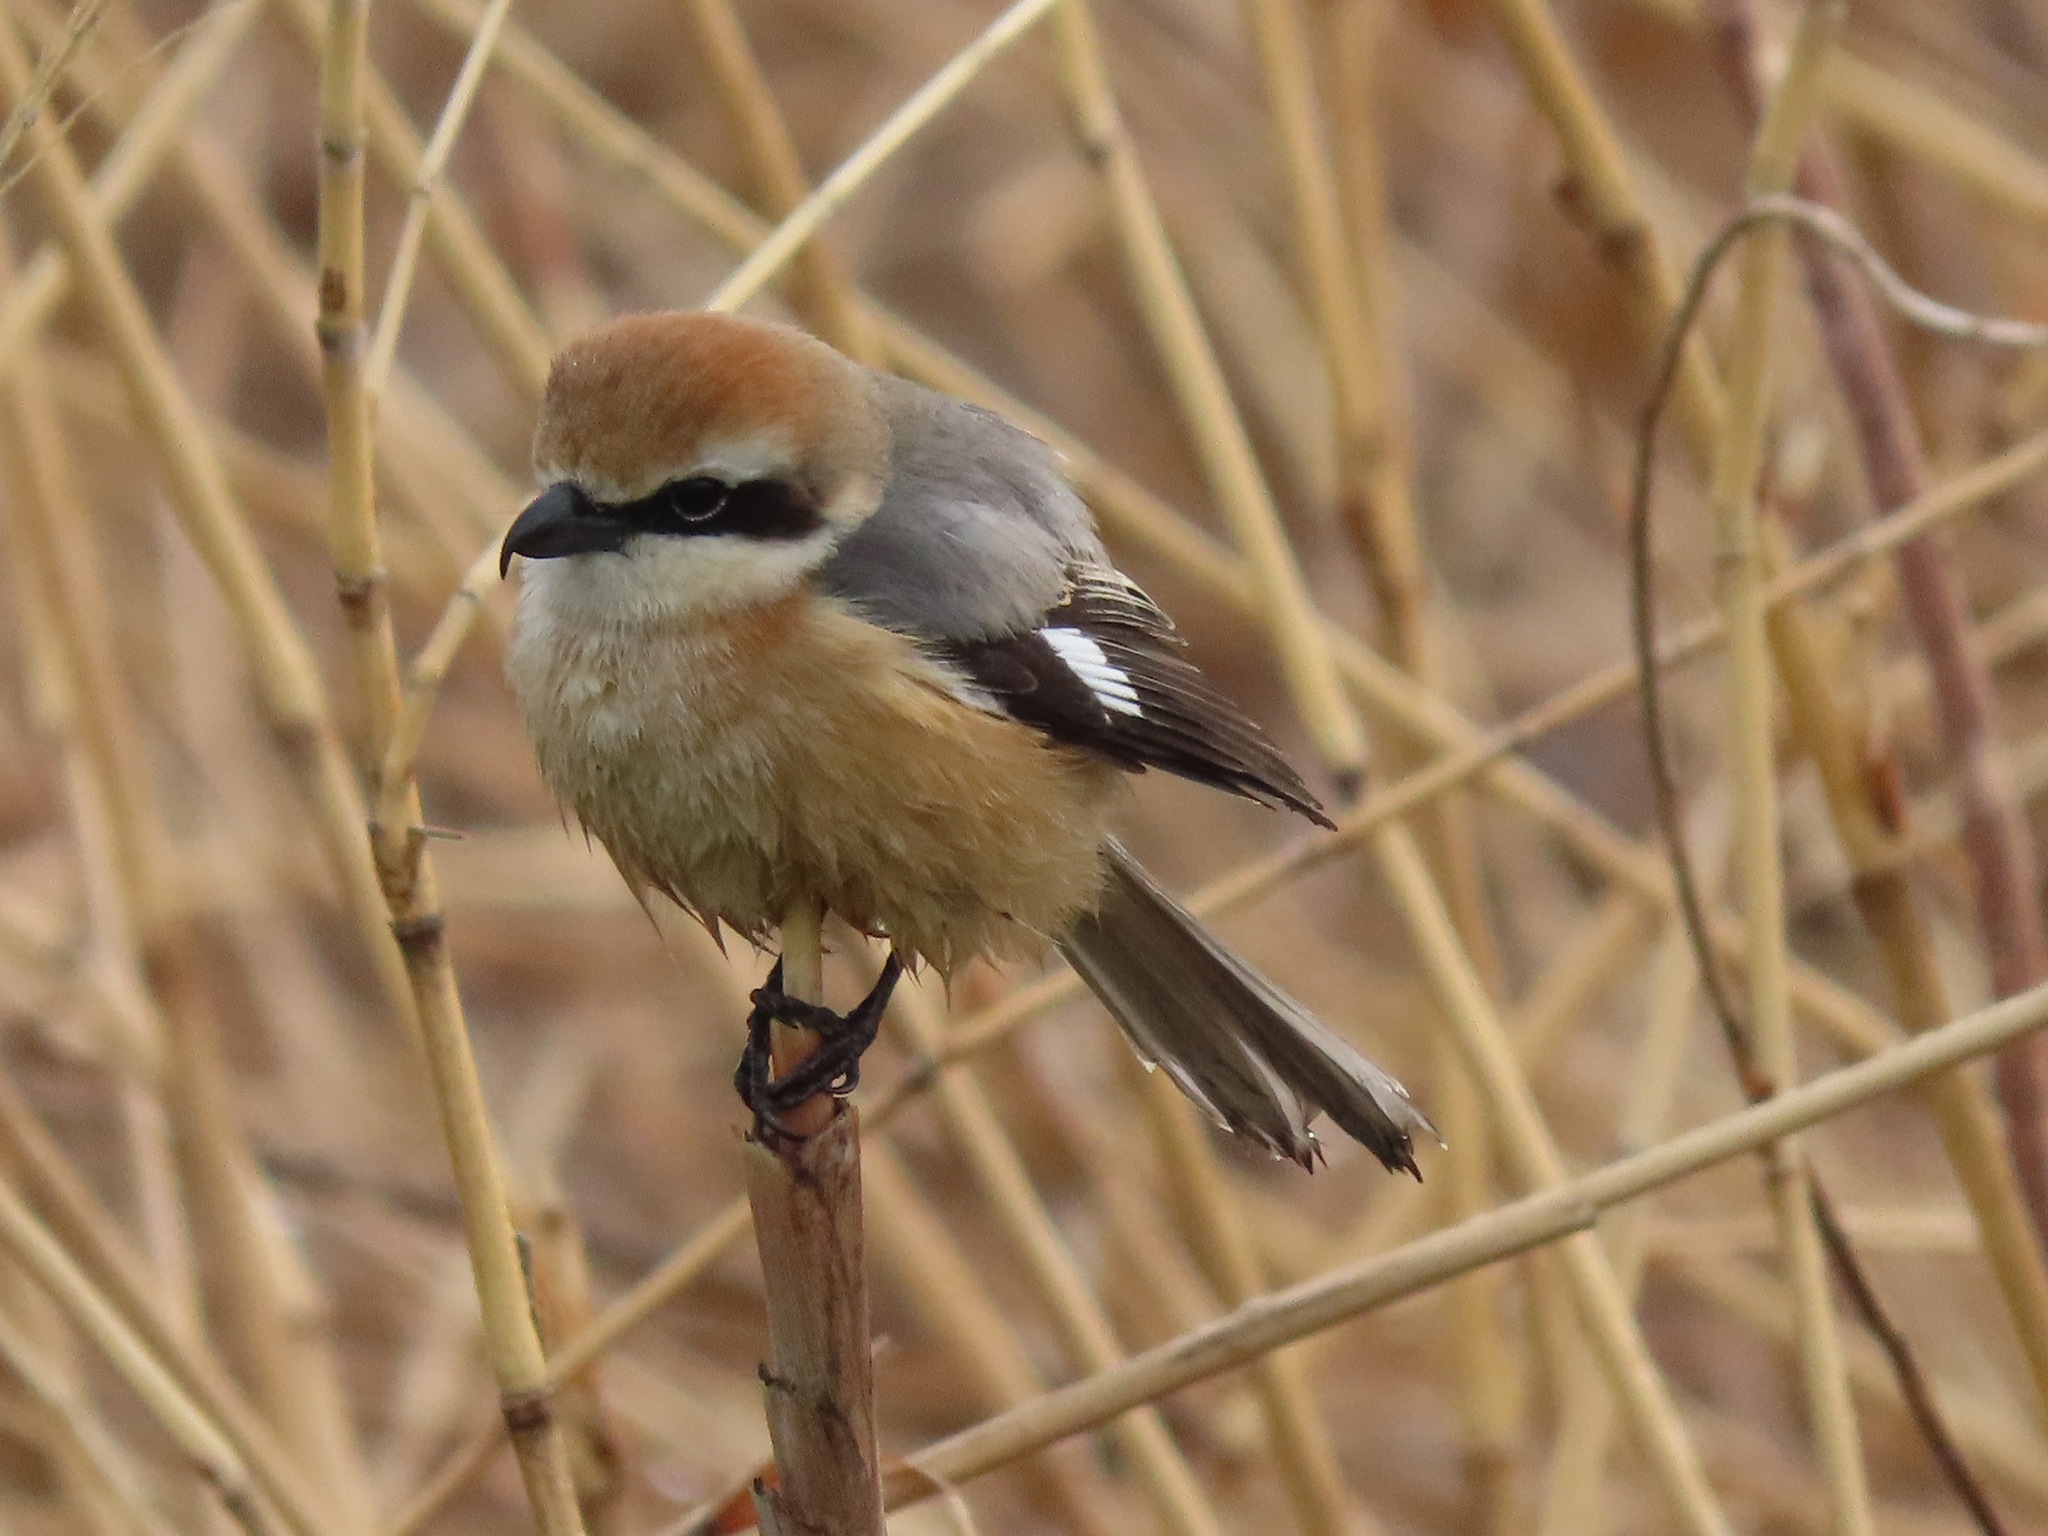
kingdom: Animalia
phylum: Chordata
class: Aves
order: Passeriformes
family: Laniidae
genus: Lanius
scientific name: Lanius bucephalus
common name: Bull-headed shrike
